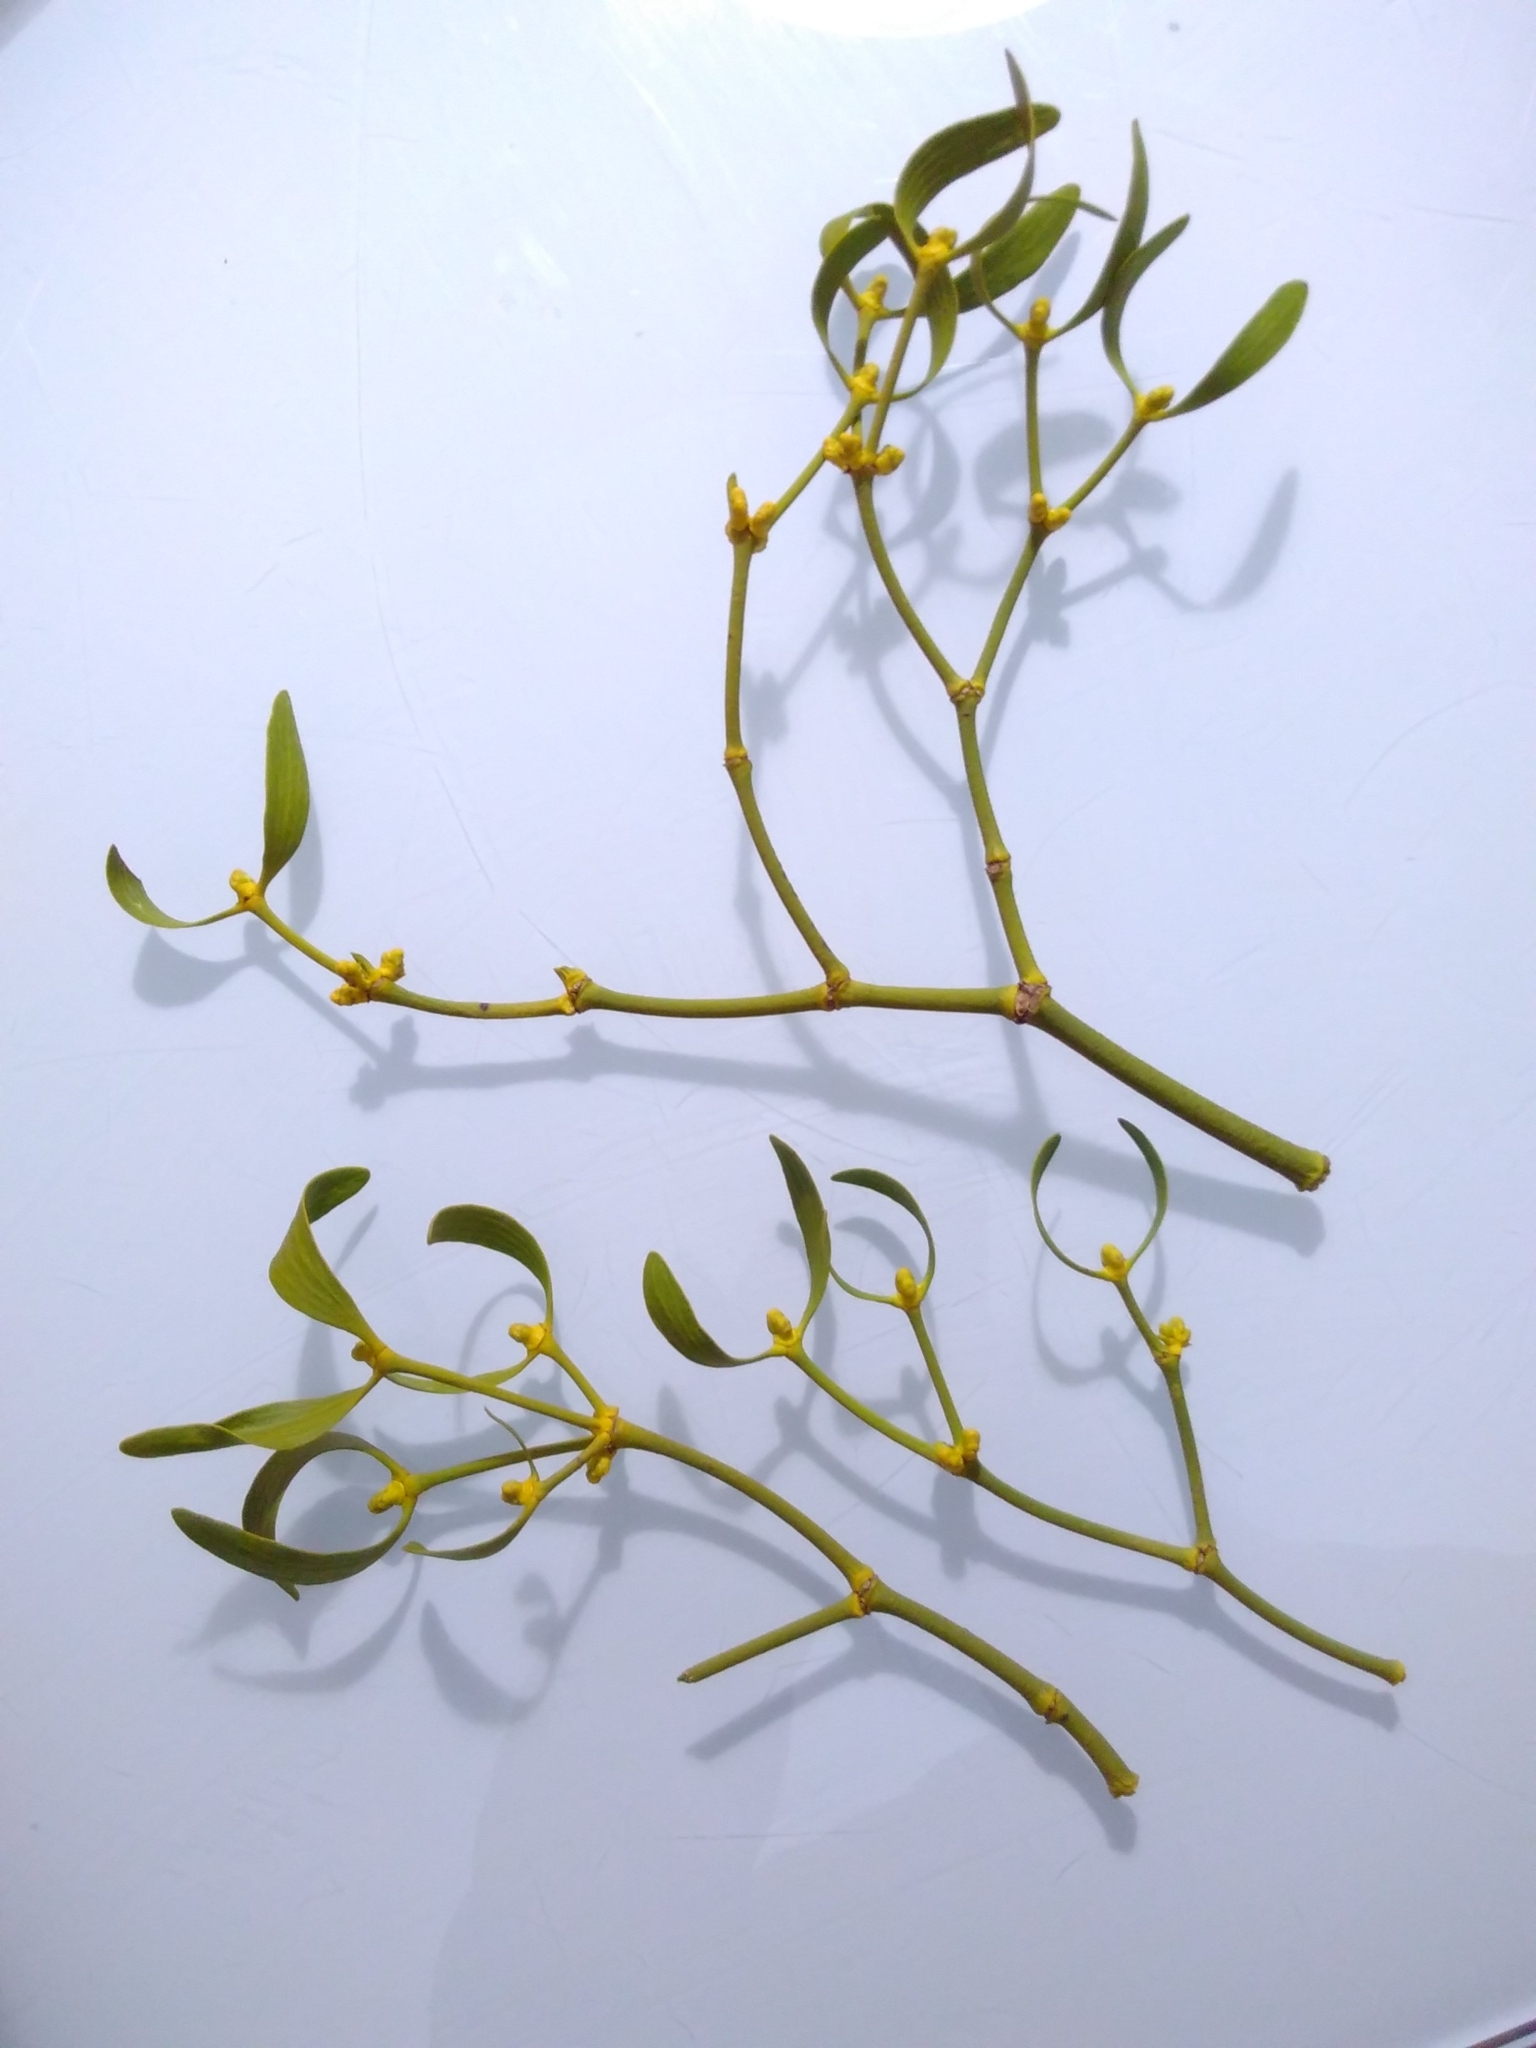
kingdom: Plantae
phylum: Tracheophyta
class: Magnoliopsida
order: Santalales
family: Viscaceae
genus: Viscum
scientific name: Viscum album
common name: Mistletoe
